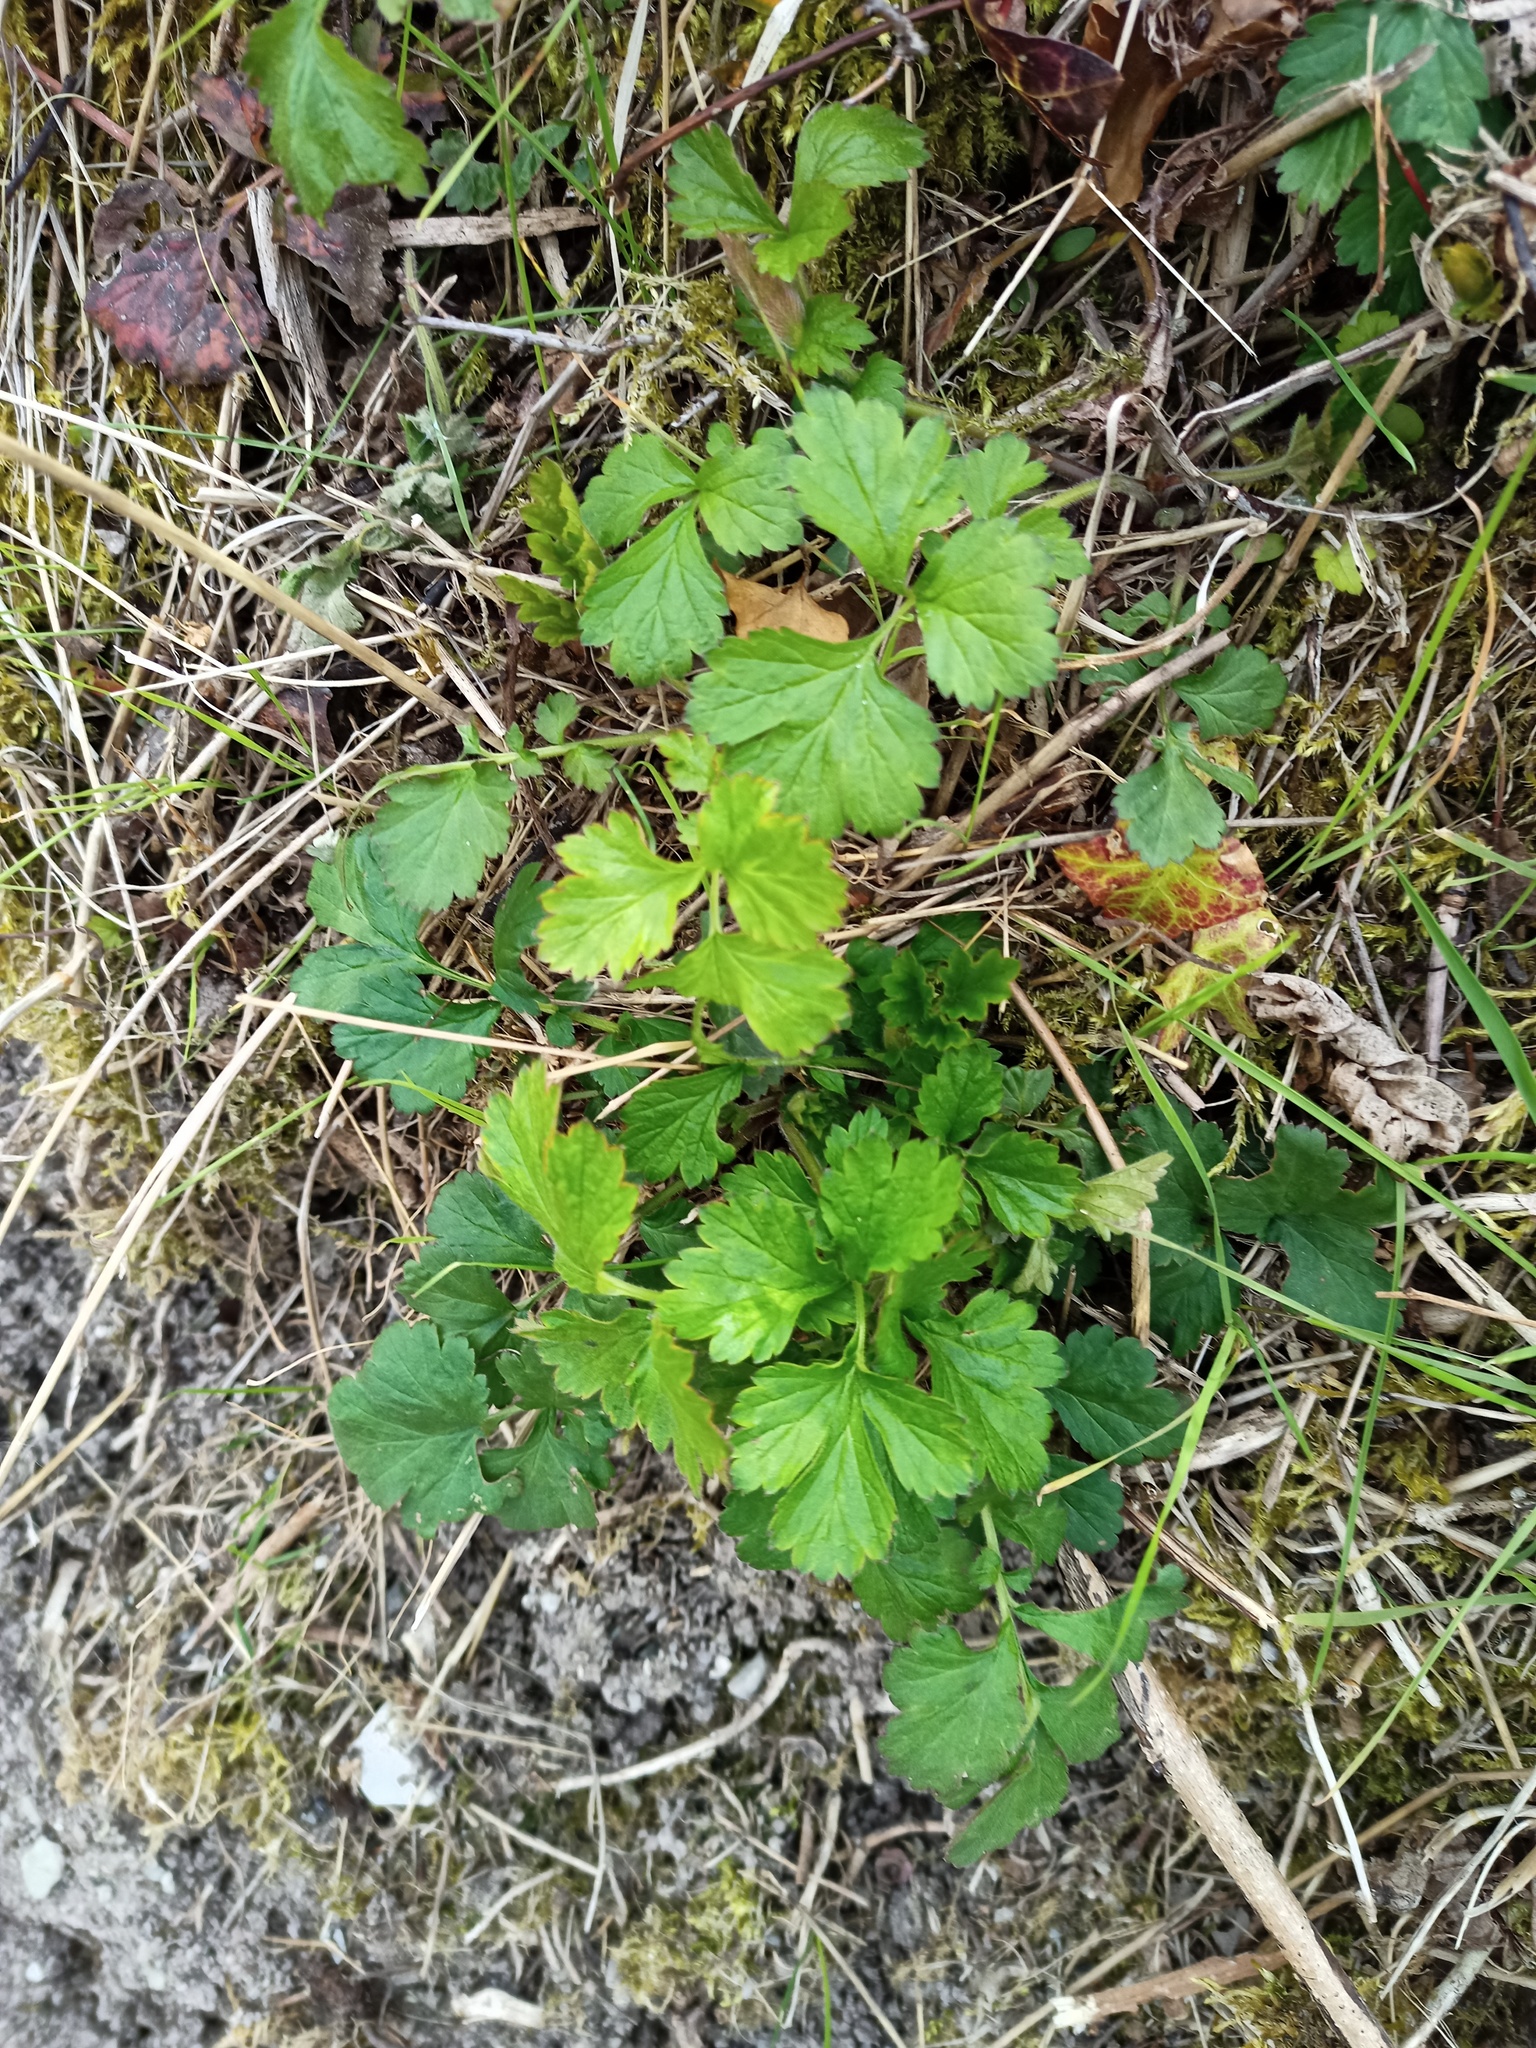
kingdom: Plantae
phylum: Tracheophyta
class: Magnoliopsida
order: Rosales
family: Rosaceae
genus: Geum
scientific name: Geum urbanum
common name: Wood avens
